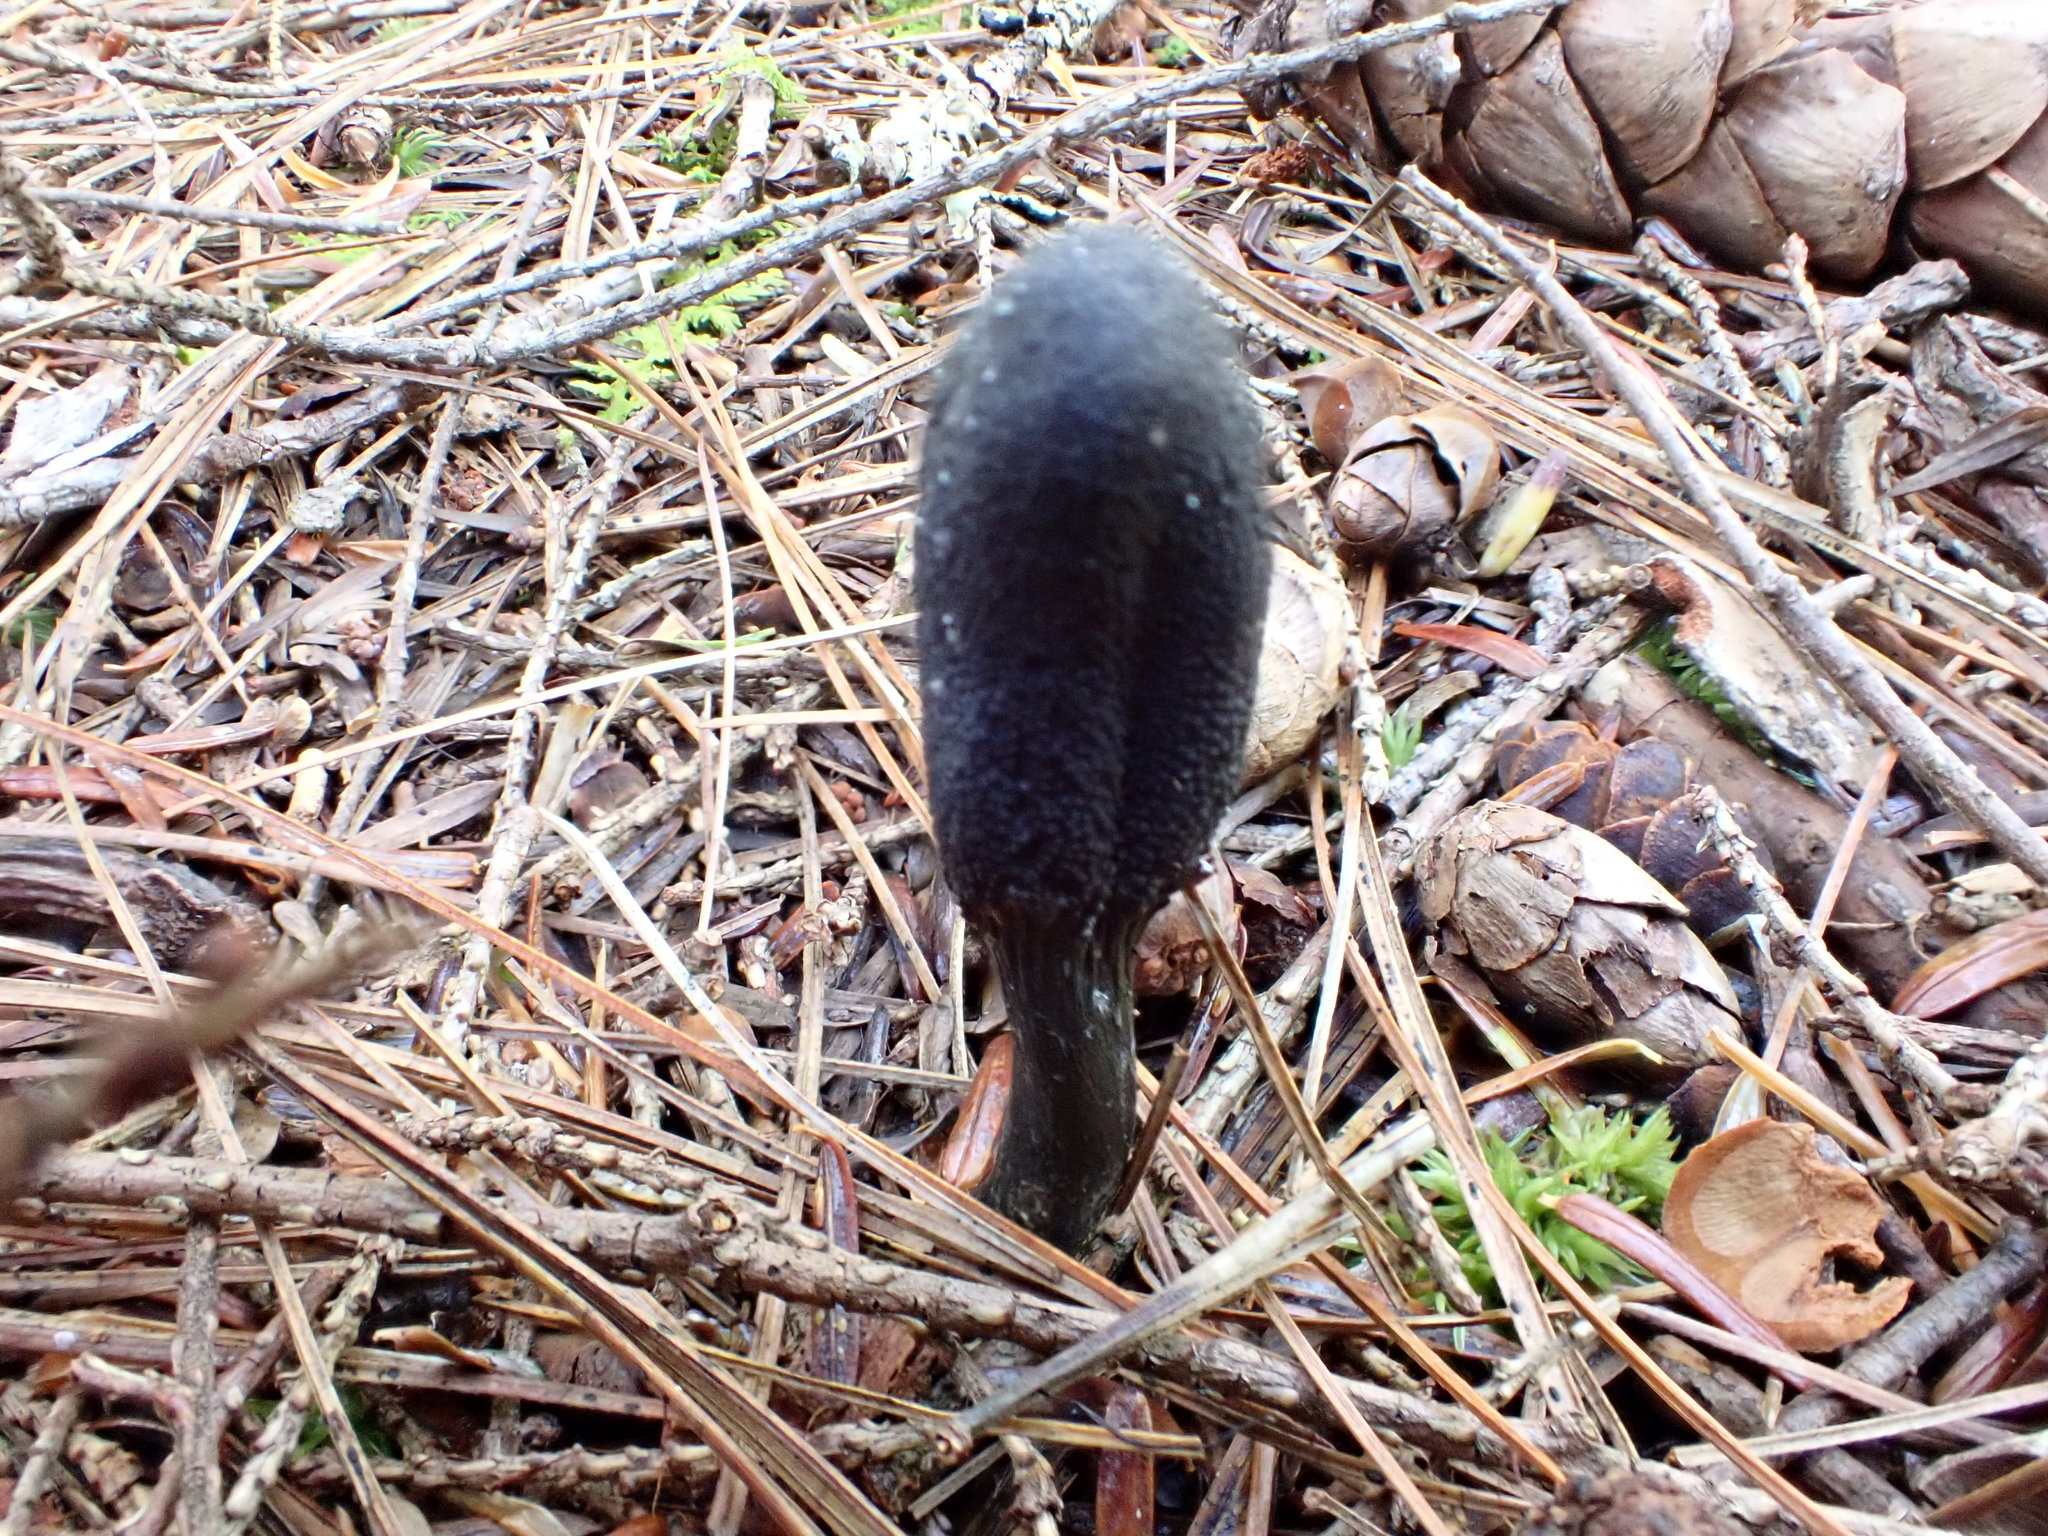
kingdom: Fungi
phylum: Ascomycota
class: Sordariomycetes
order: Hypocreales
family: Ophiocordycipitaceae
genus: Tolypocladium
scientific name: Tolypocladium ophioglossoides
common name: Snaketongue truffleclub
